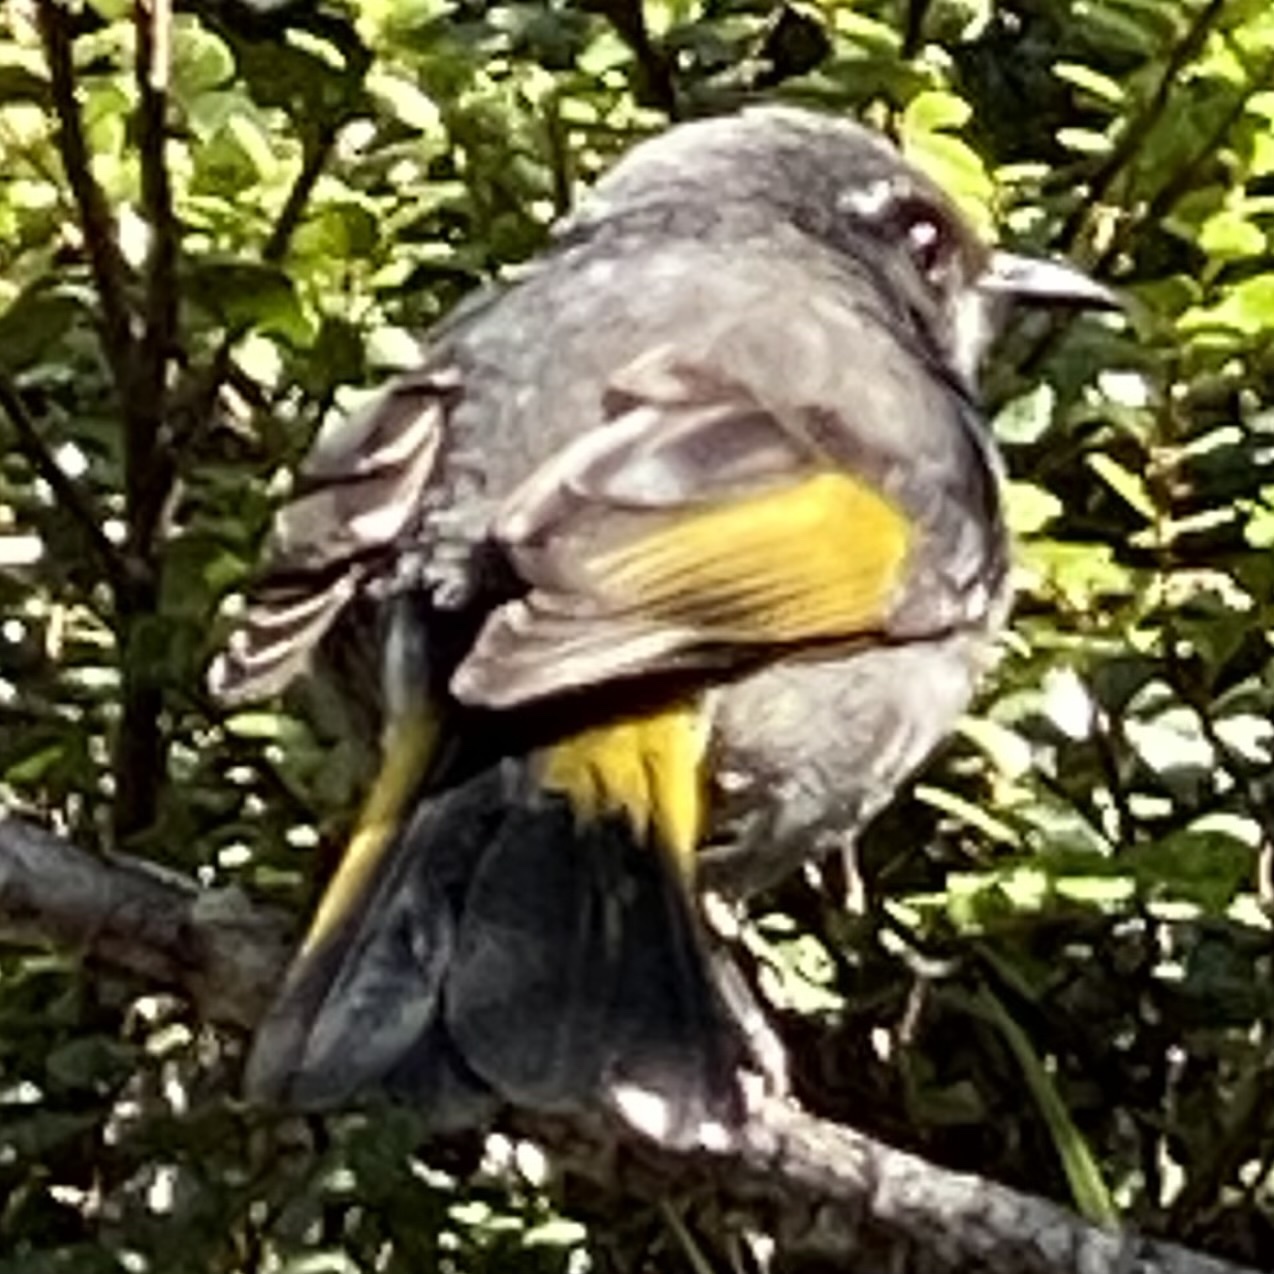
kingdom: Animalia
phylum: Chordata
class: Aves
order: Passeriformes
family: Meliphagidae
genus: Phylidonyris
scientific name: Phylidonyris pyrrhopterus
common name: Crescent honeyeater
